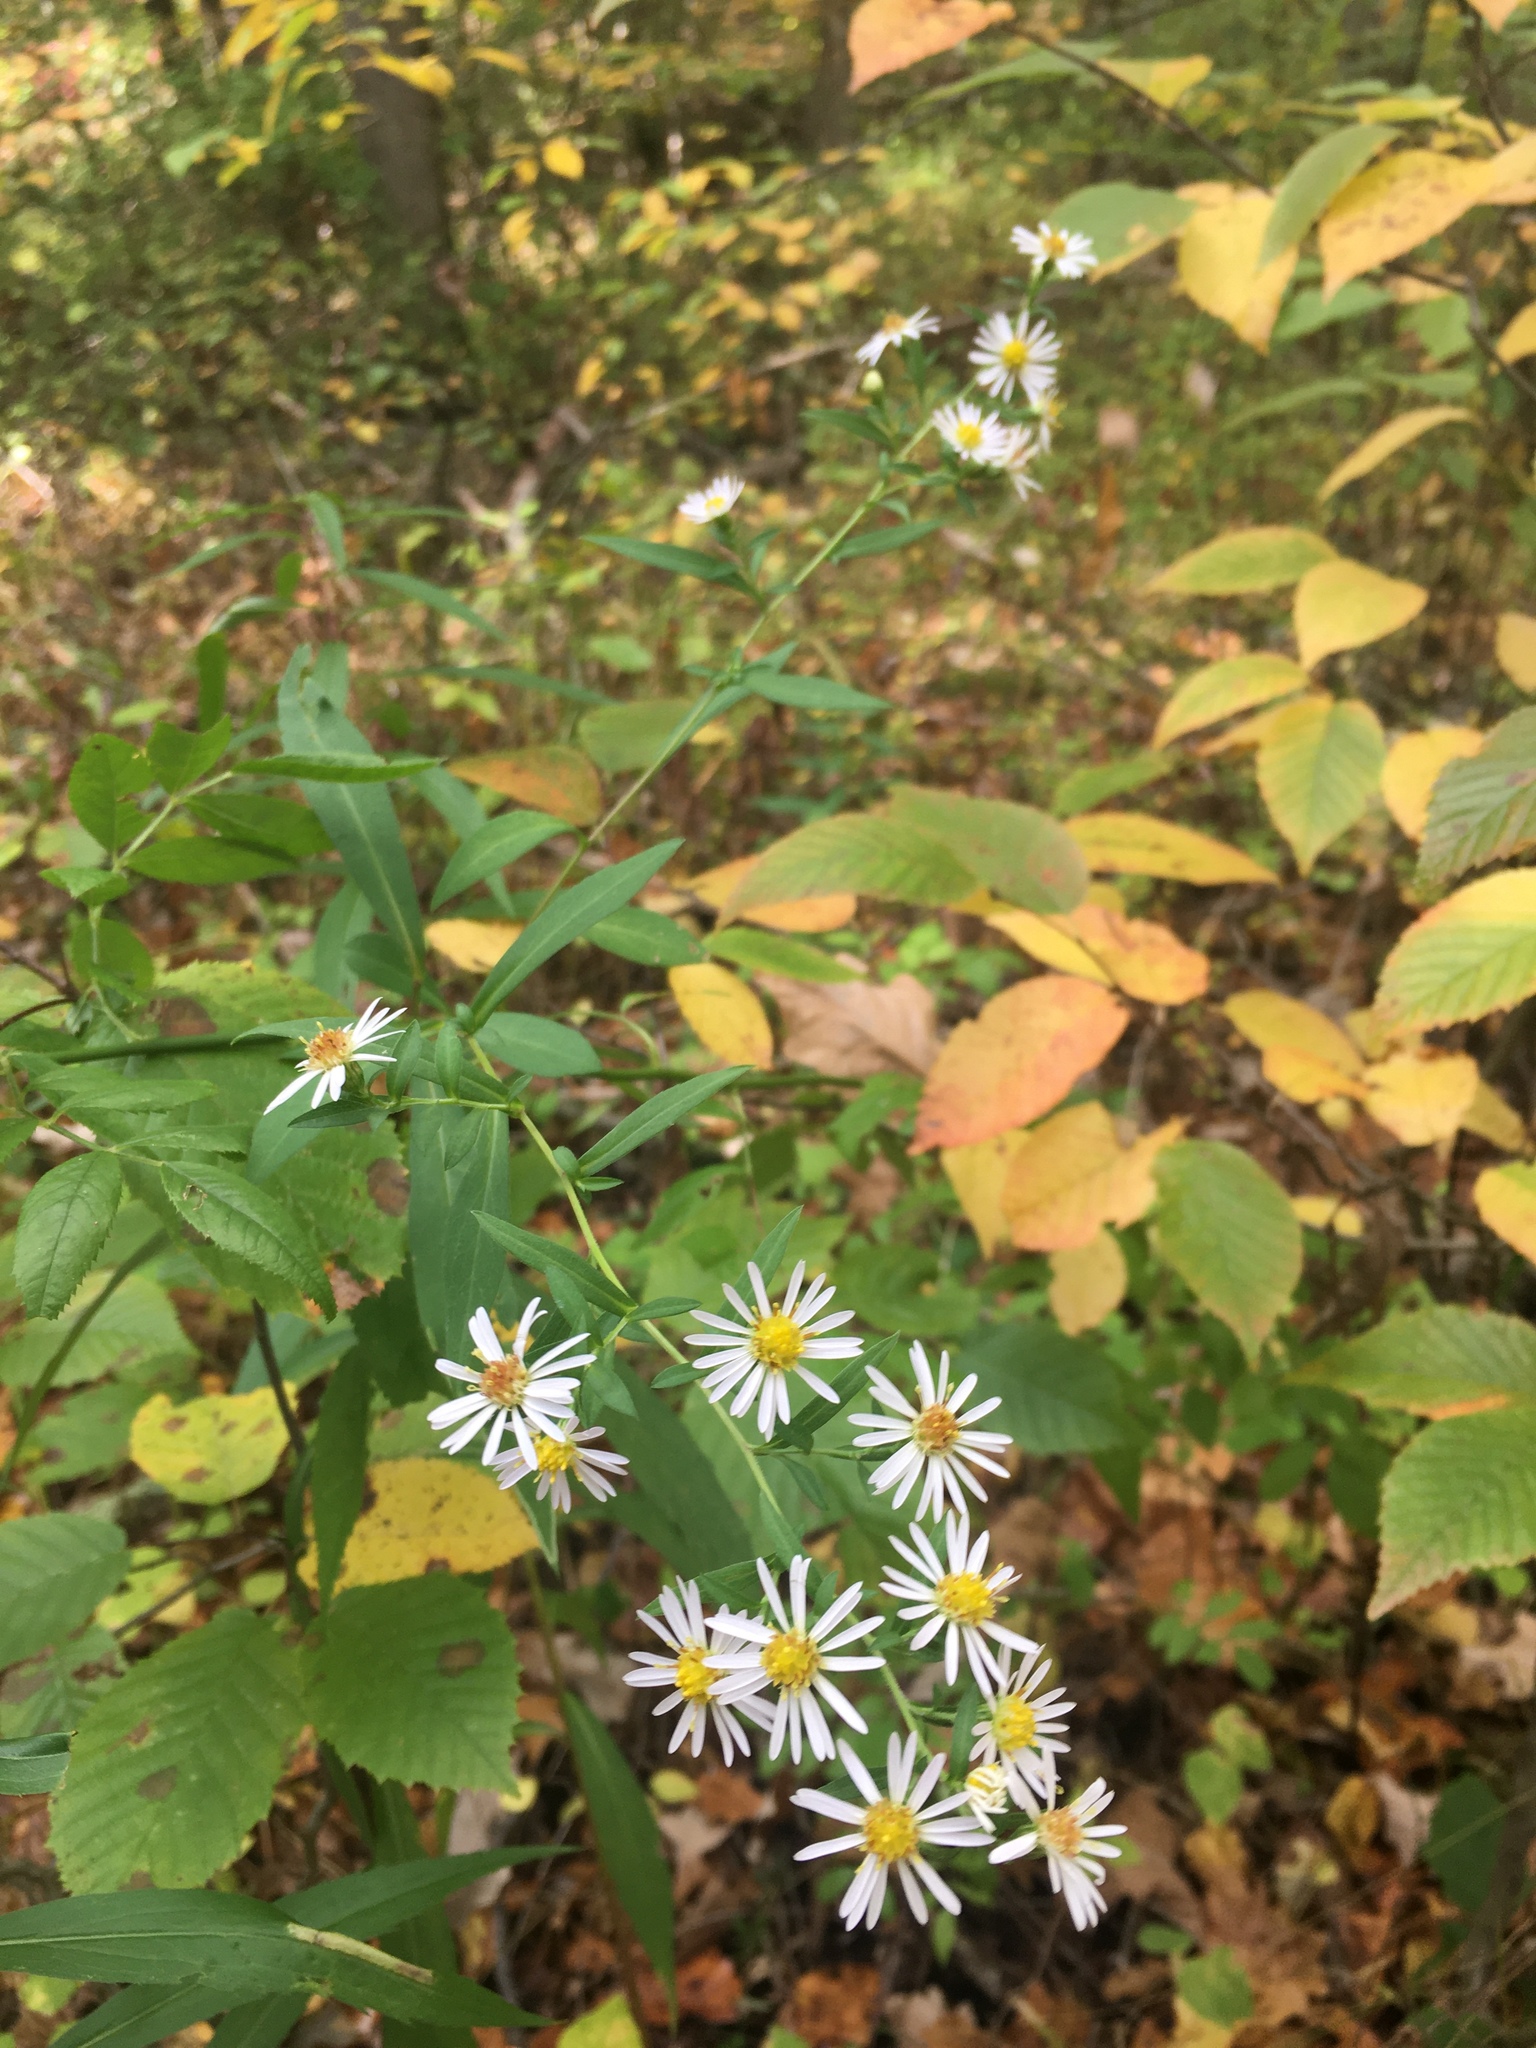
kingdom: Plantae
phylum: Tracheophyta
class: Magnoliopsida
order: Asterales
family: Asteraceae
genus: Symphyotrichum
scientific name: Symphyotrichum lanceolatum
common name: Panicled aster
